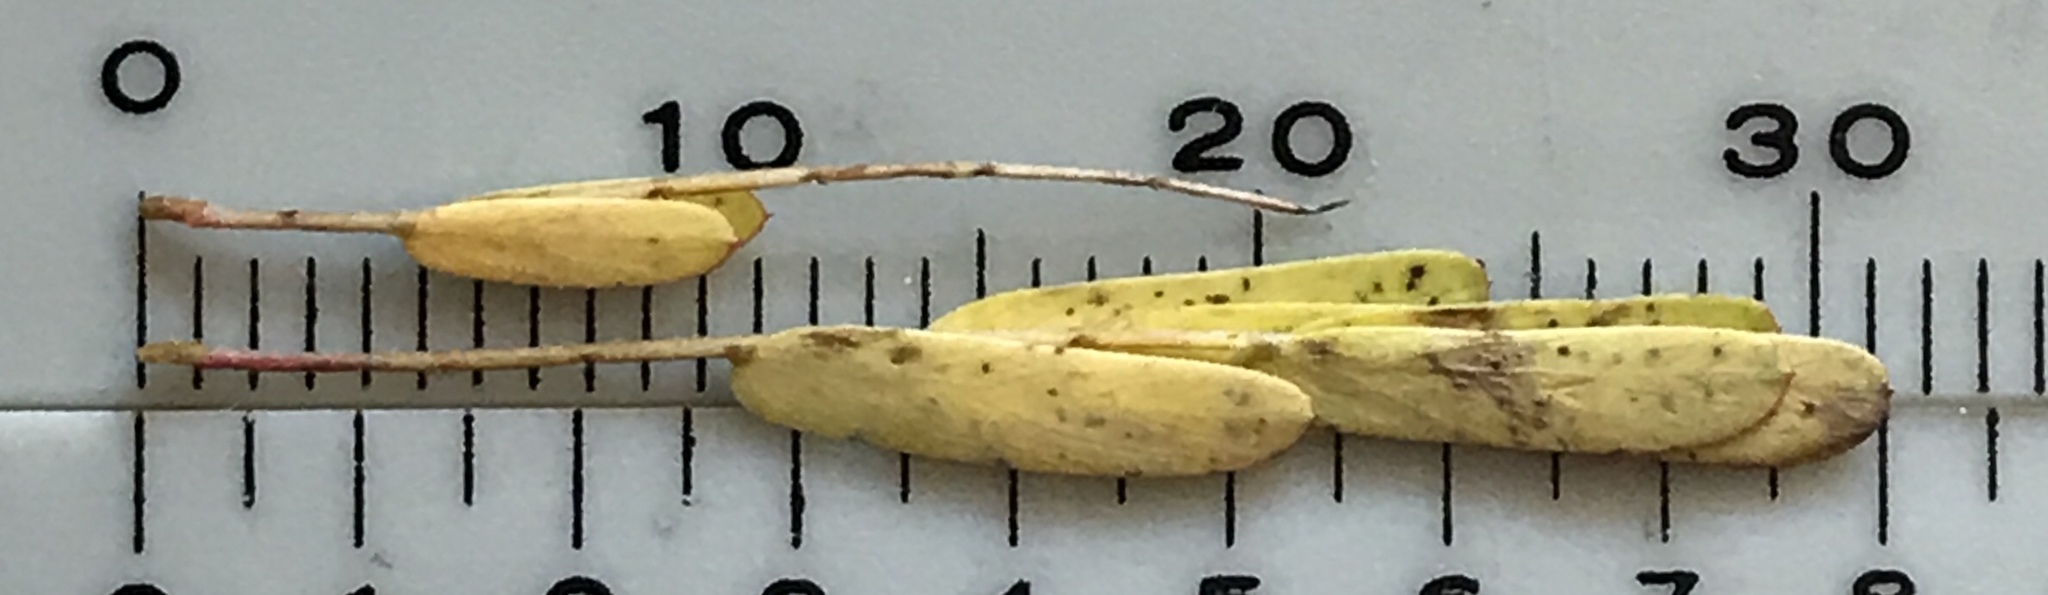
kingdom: Plantae
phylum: Tracheophyta
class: Magnoliopsida
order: Fabales
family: Fabaceae
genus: Chamaecrista
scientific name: Chamaecrista fasciculata
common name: Golden cassia
